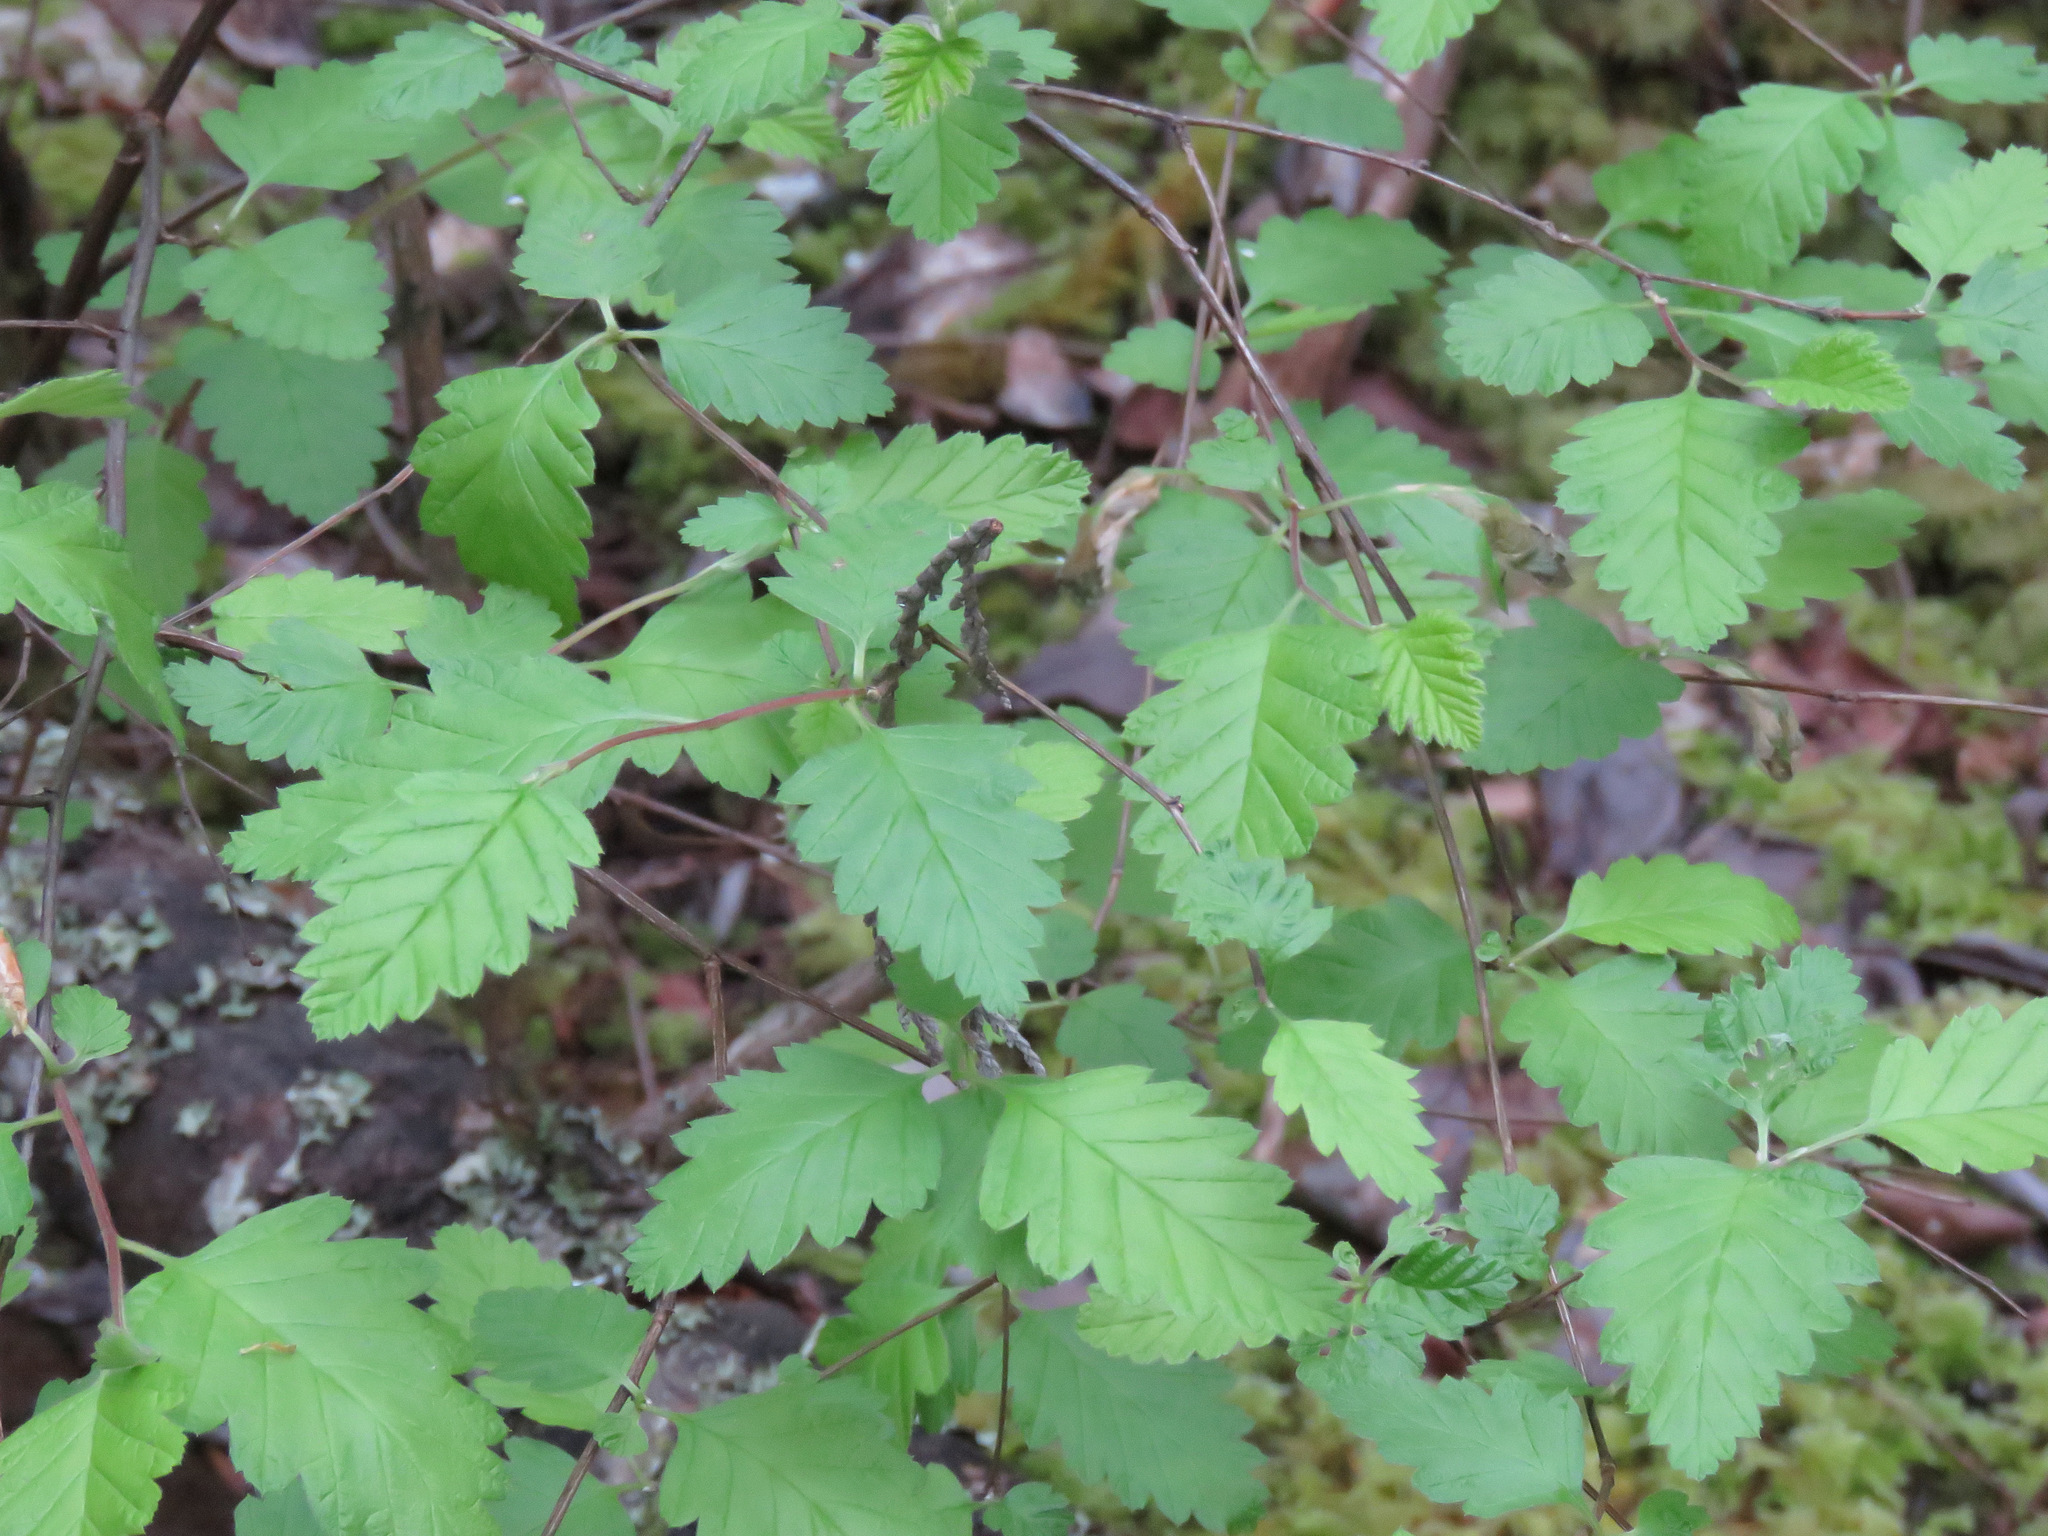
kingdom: Plantae
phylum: Tracheophyta
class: Magnoliopsida
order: Rosales
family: Rosaceae
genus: Holodiscus
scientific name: Holodiscus discolor
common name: Oceanspray
